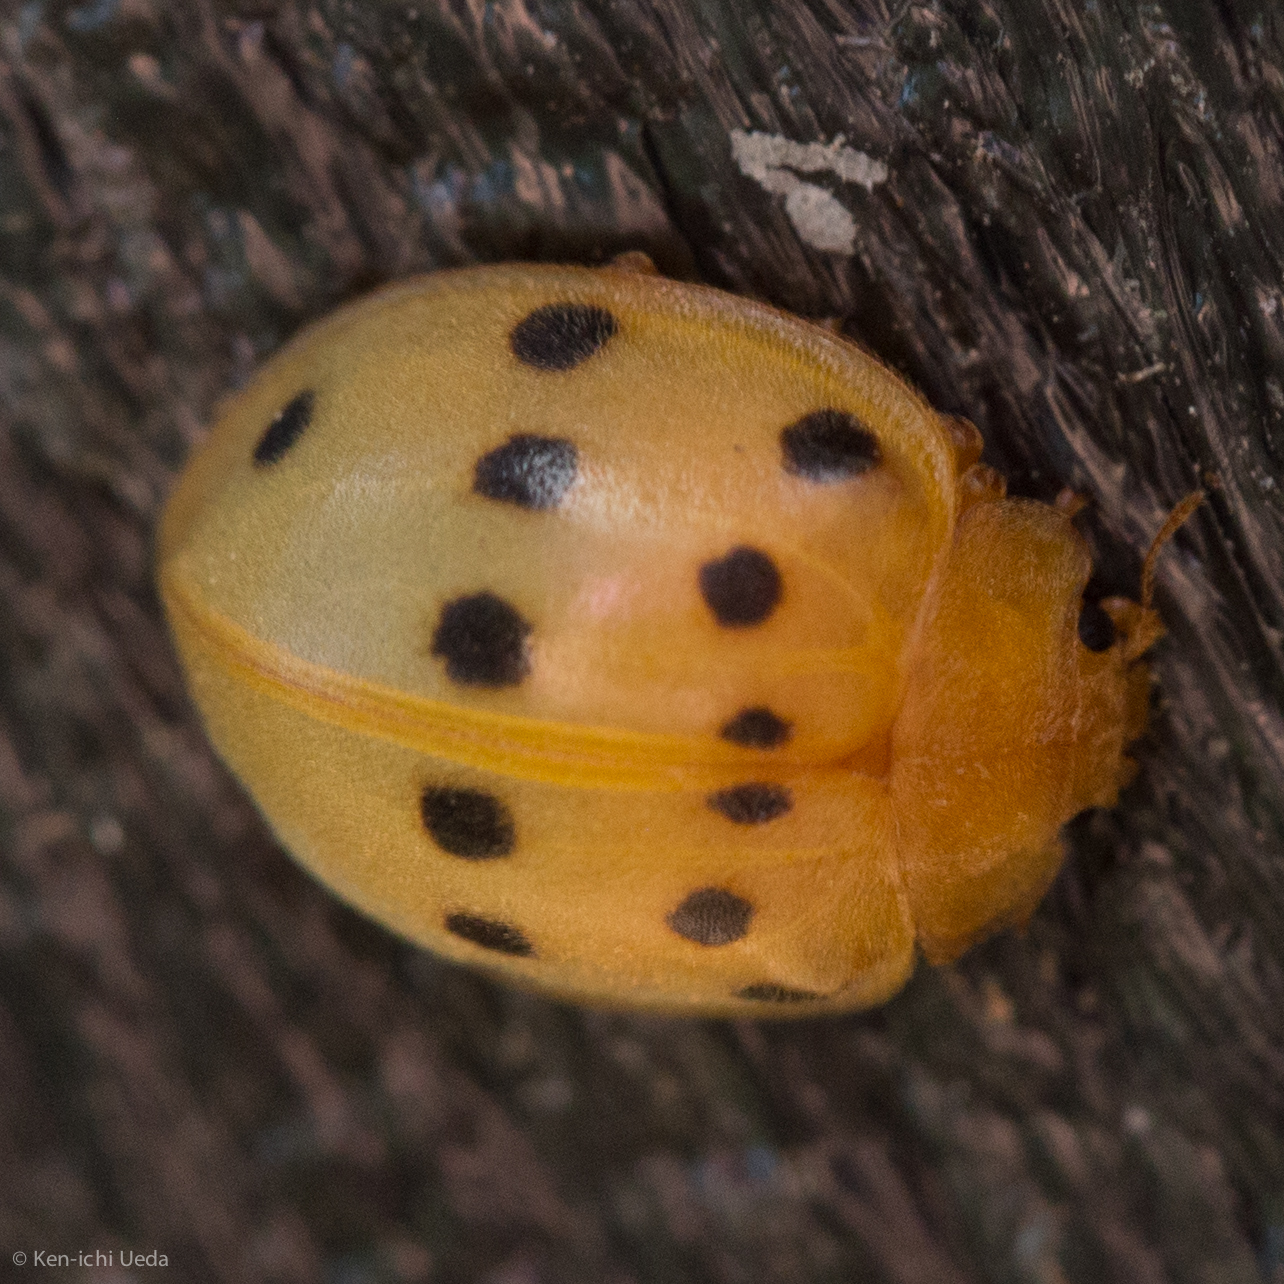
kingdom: Animalia
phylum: Arthropoda
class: Insecta
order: Coleoptera
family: Coccinellidae
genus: Epilachna
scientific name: Epilachna tredecimnotata
